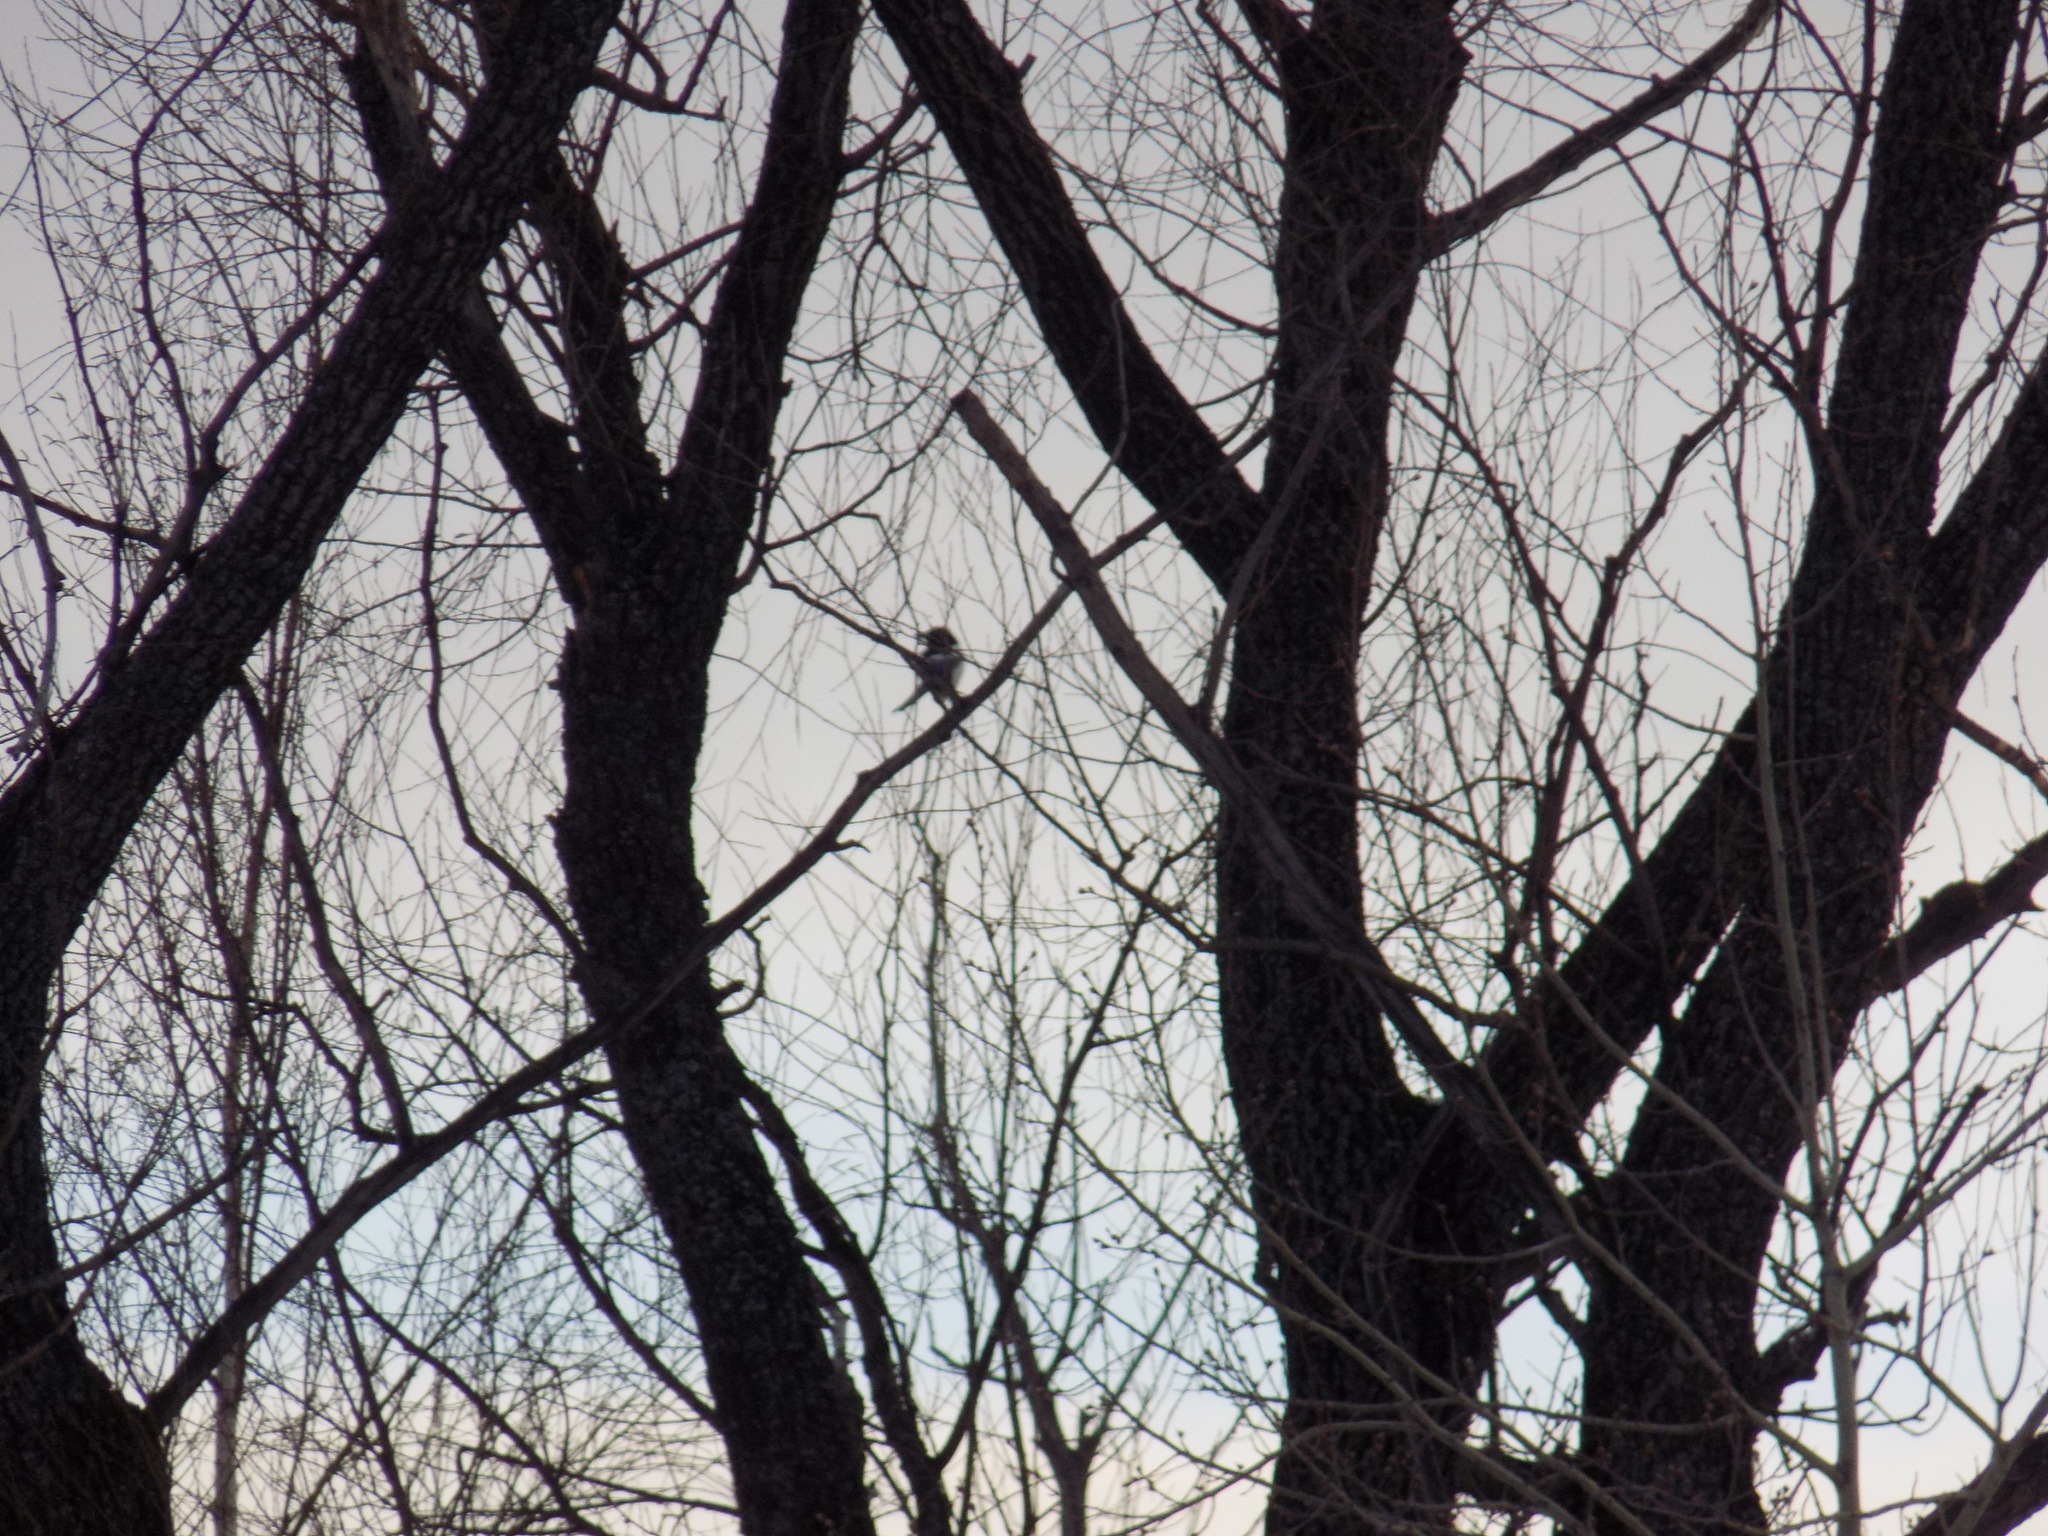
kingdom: Animalia
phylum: Chordata
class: Aves
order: Passeriformes
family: Corvidae
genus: Pica
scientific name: Pica pica
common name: Eurasian magpie
